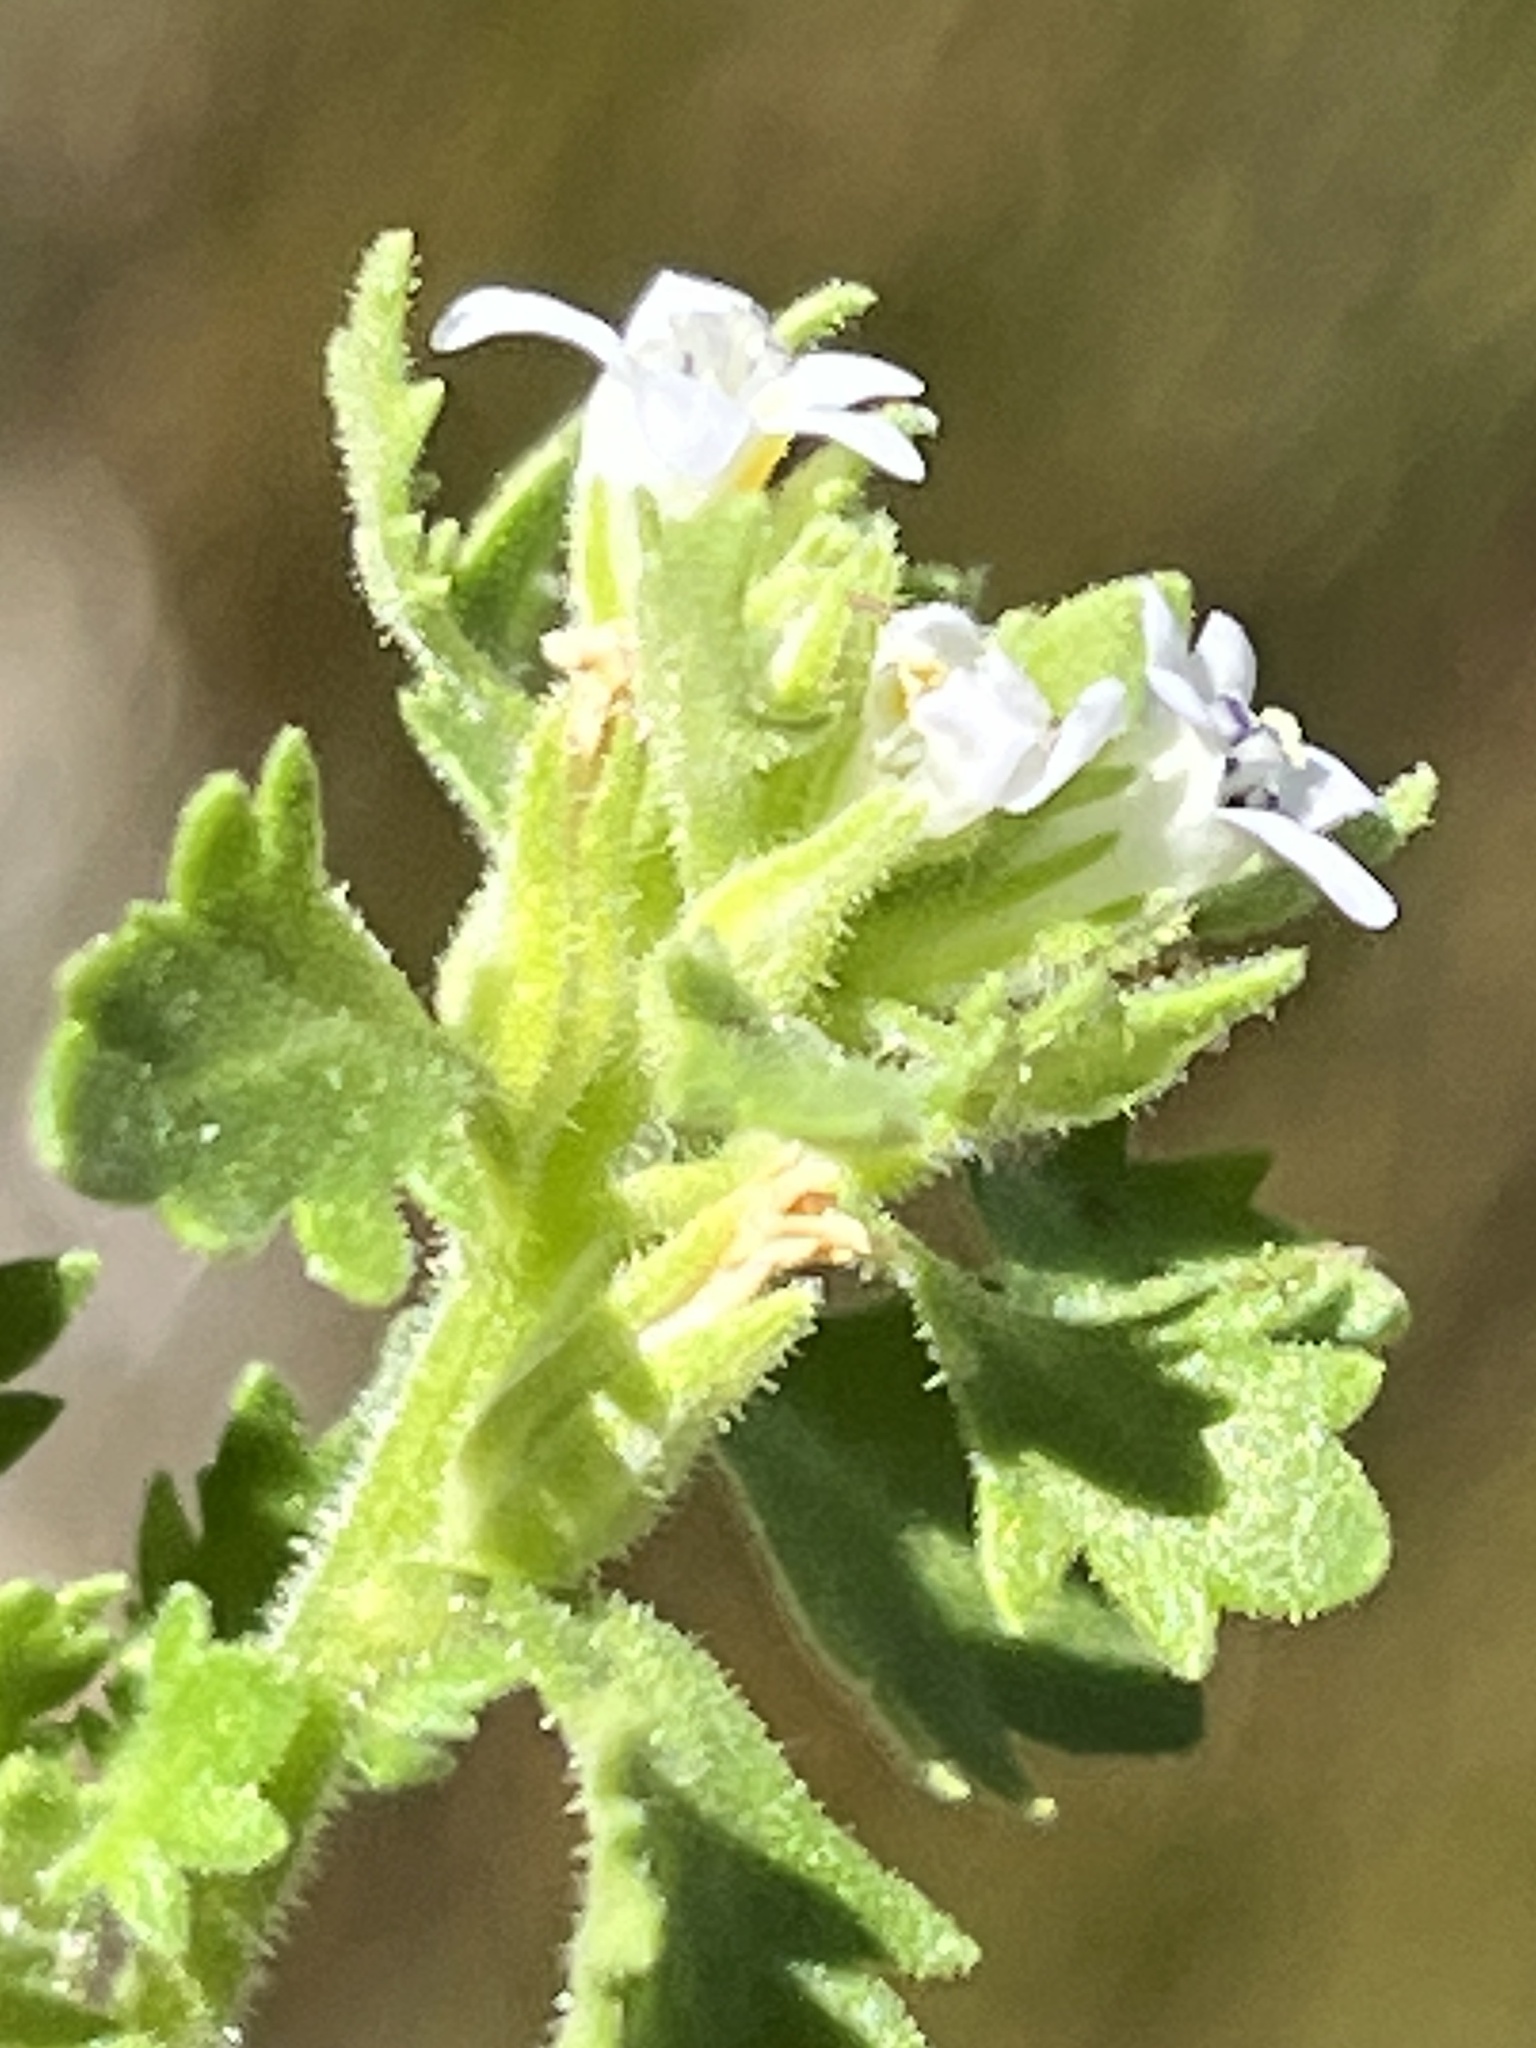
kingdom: Plantae
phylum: Tracheophyta
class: Magnoliopsida
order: Lamiales
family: Scrophulariaceae
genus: Trieenea
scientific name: Trieenea glutinosa
